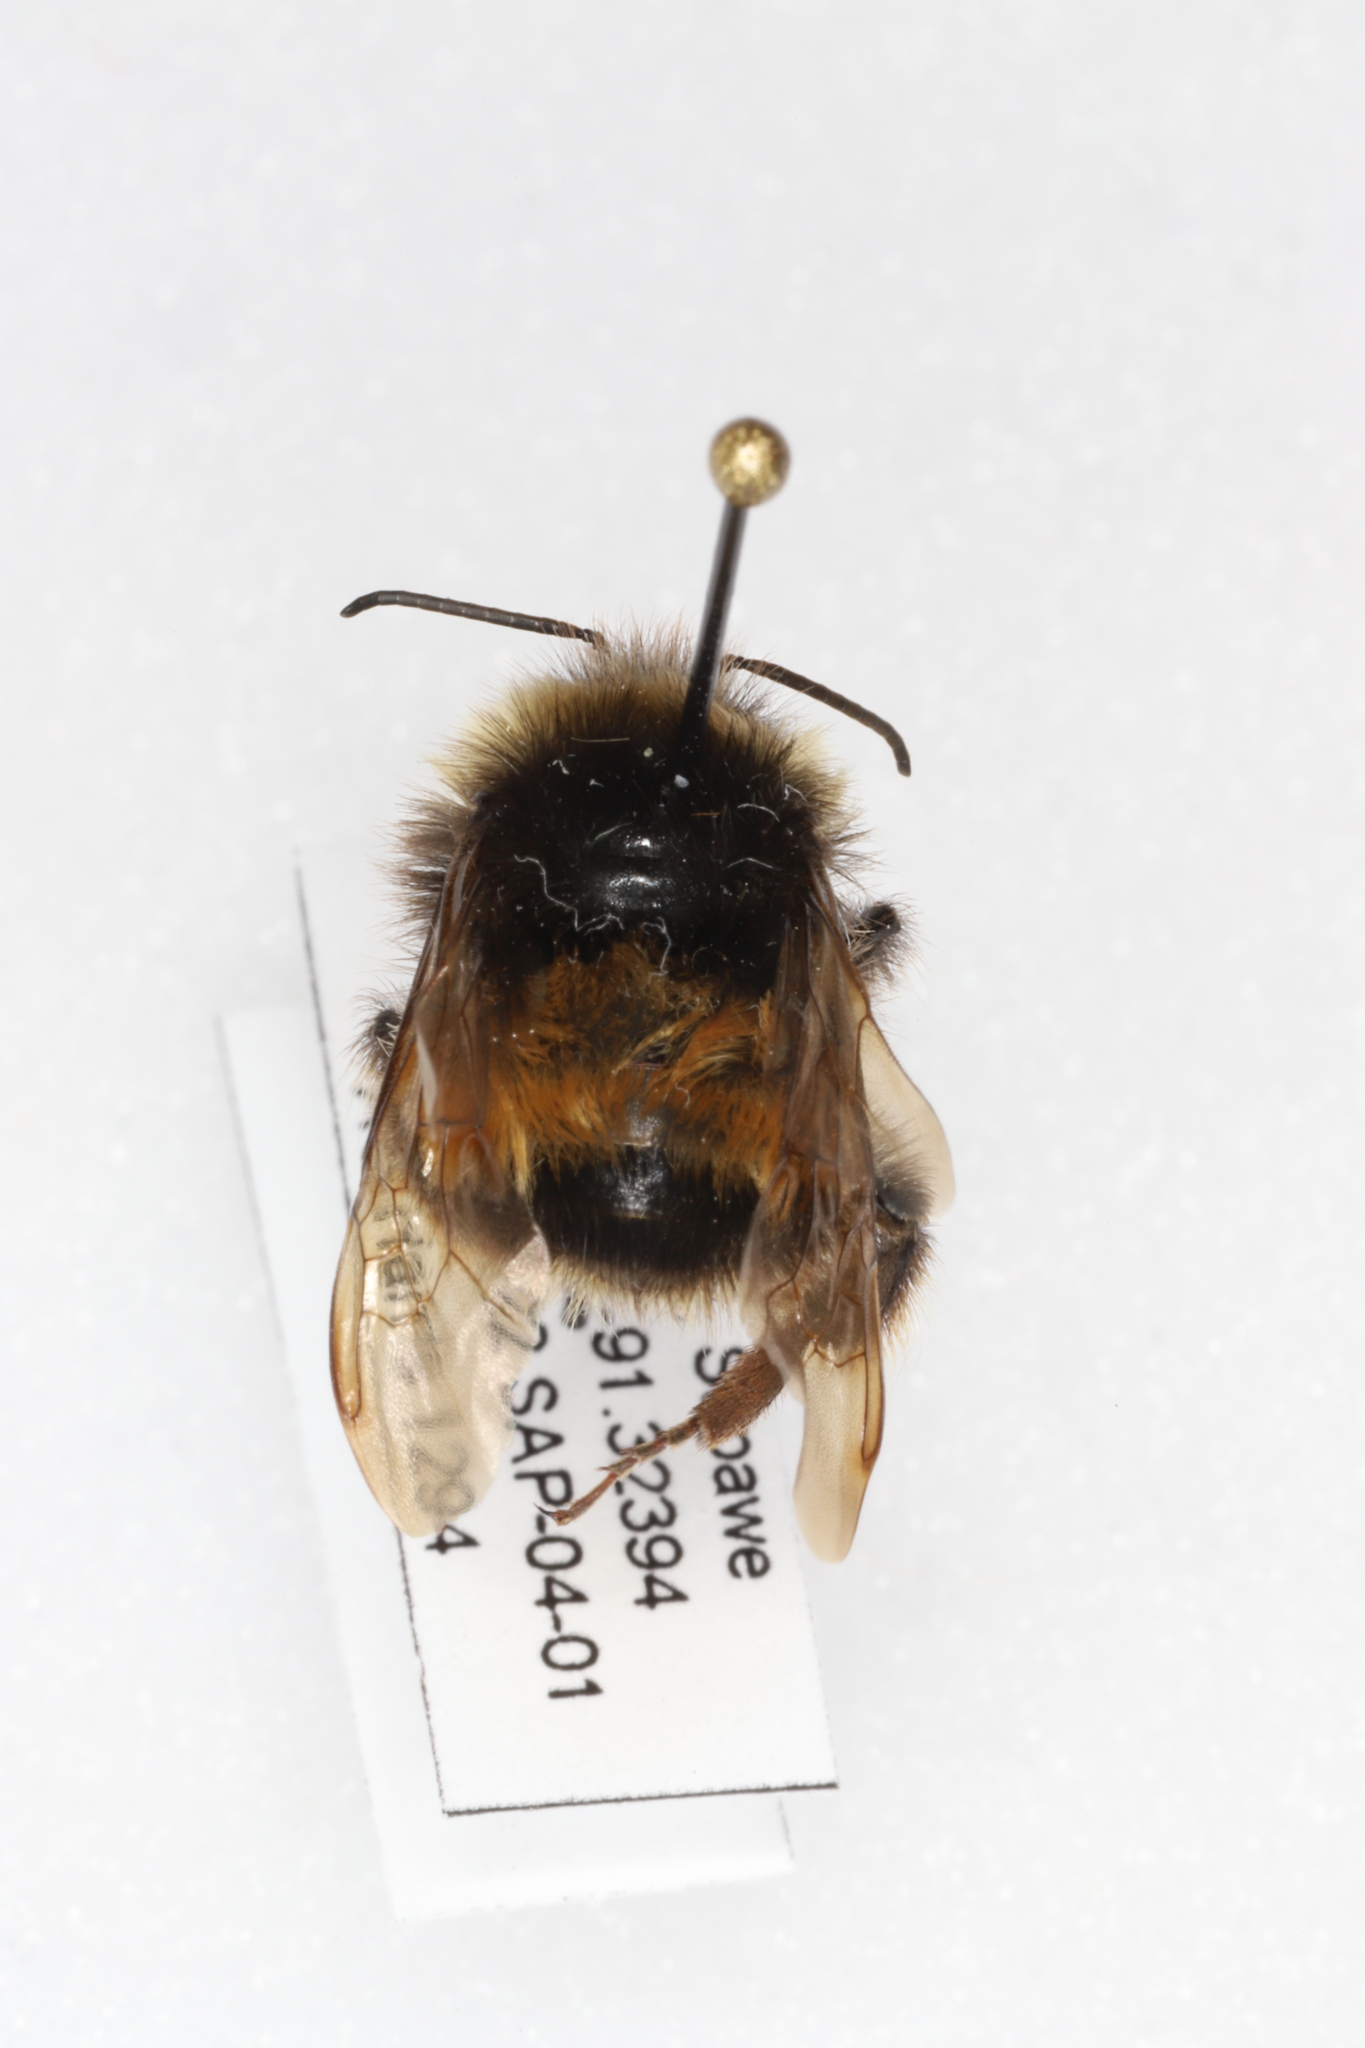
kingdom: Animalia
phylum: Arthropoda
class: Insecta
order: Hymenoptera
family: Apidae
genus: Bombus
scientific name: Bombus terricola
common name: Yellow-banded bumble bee
